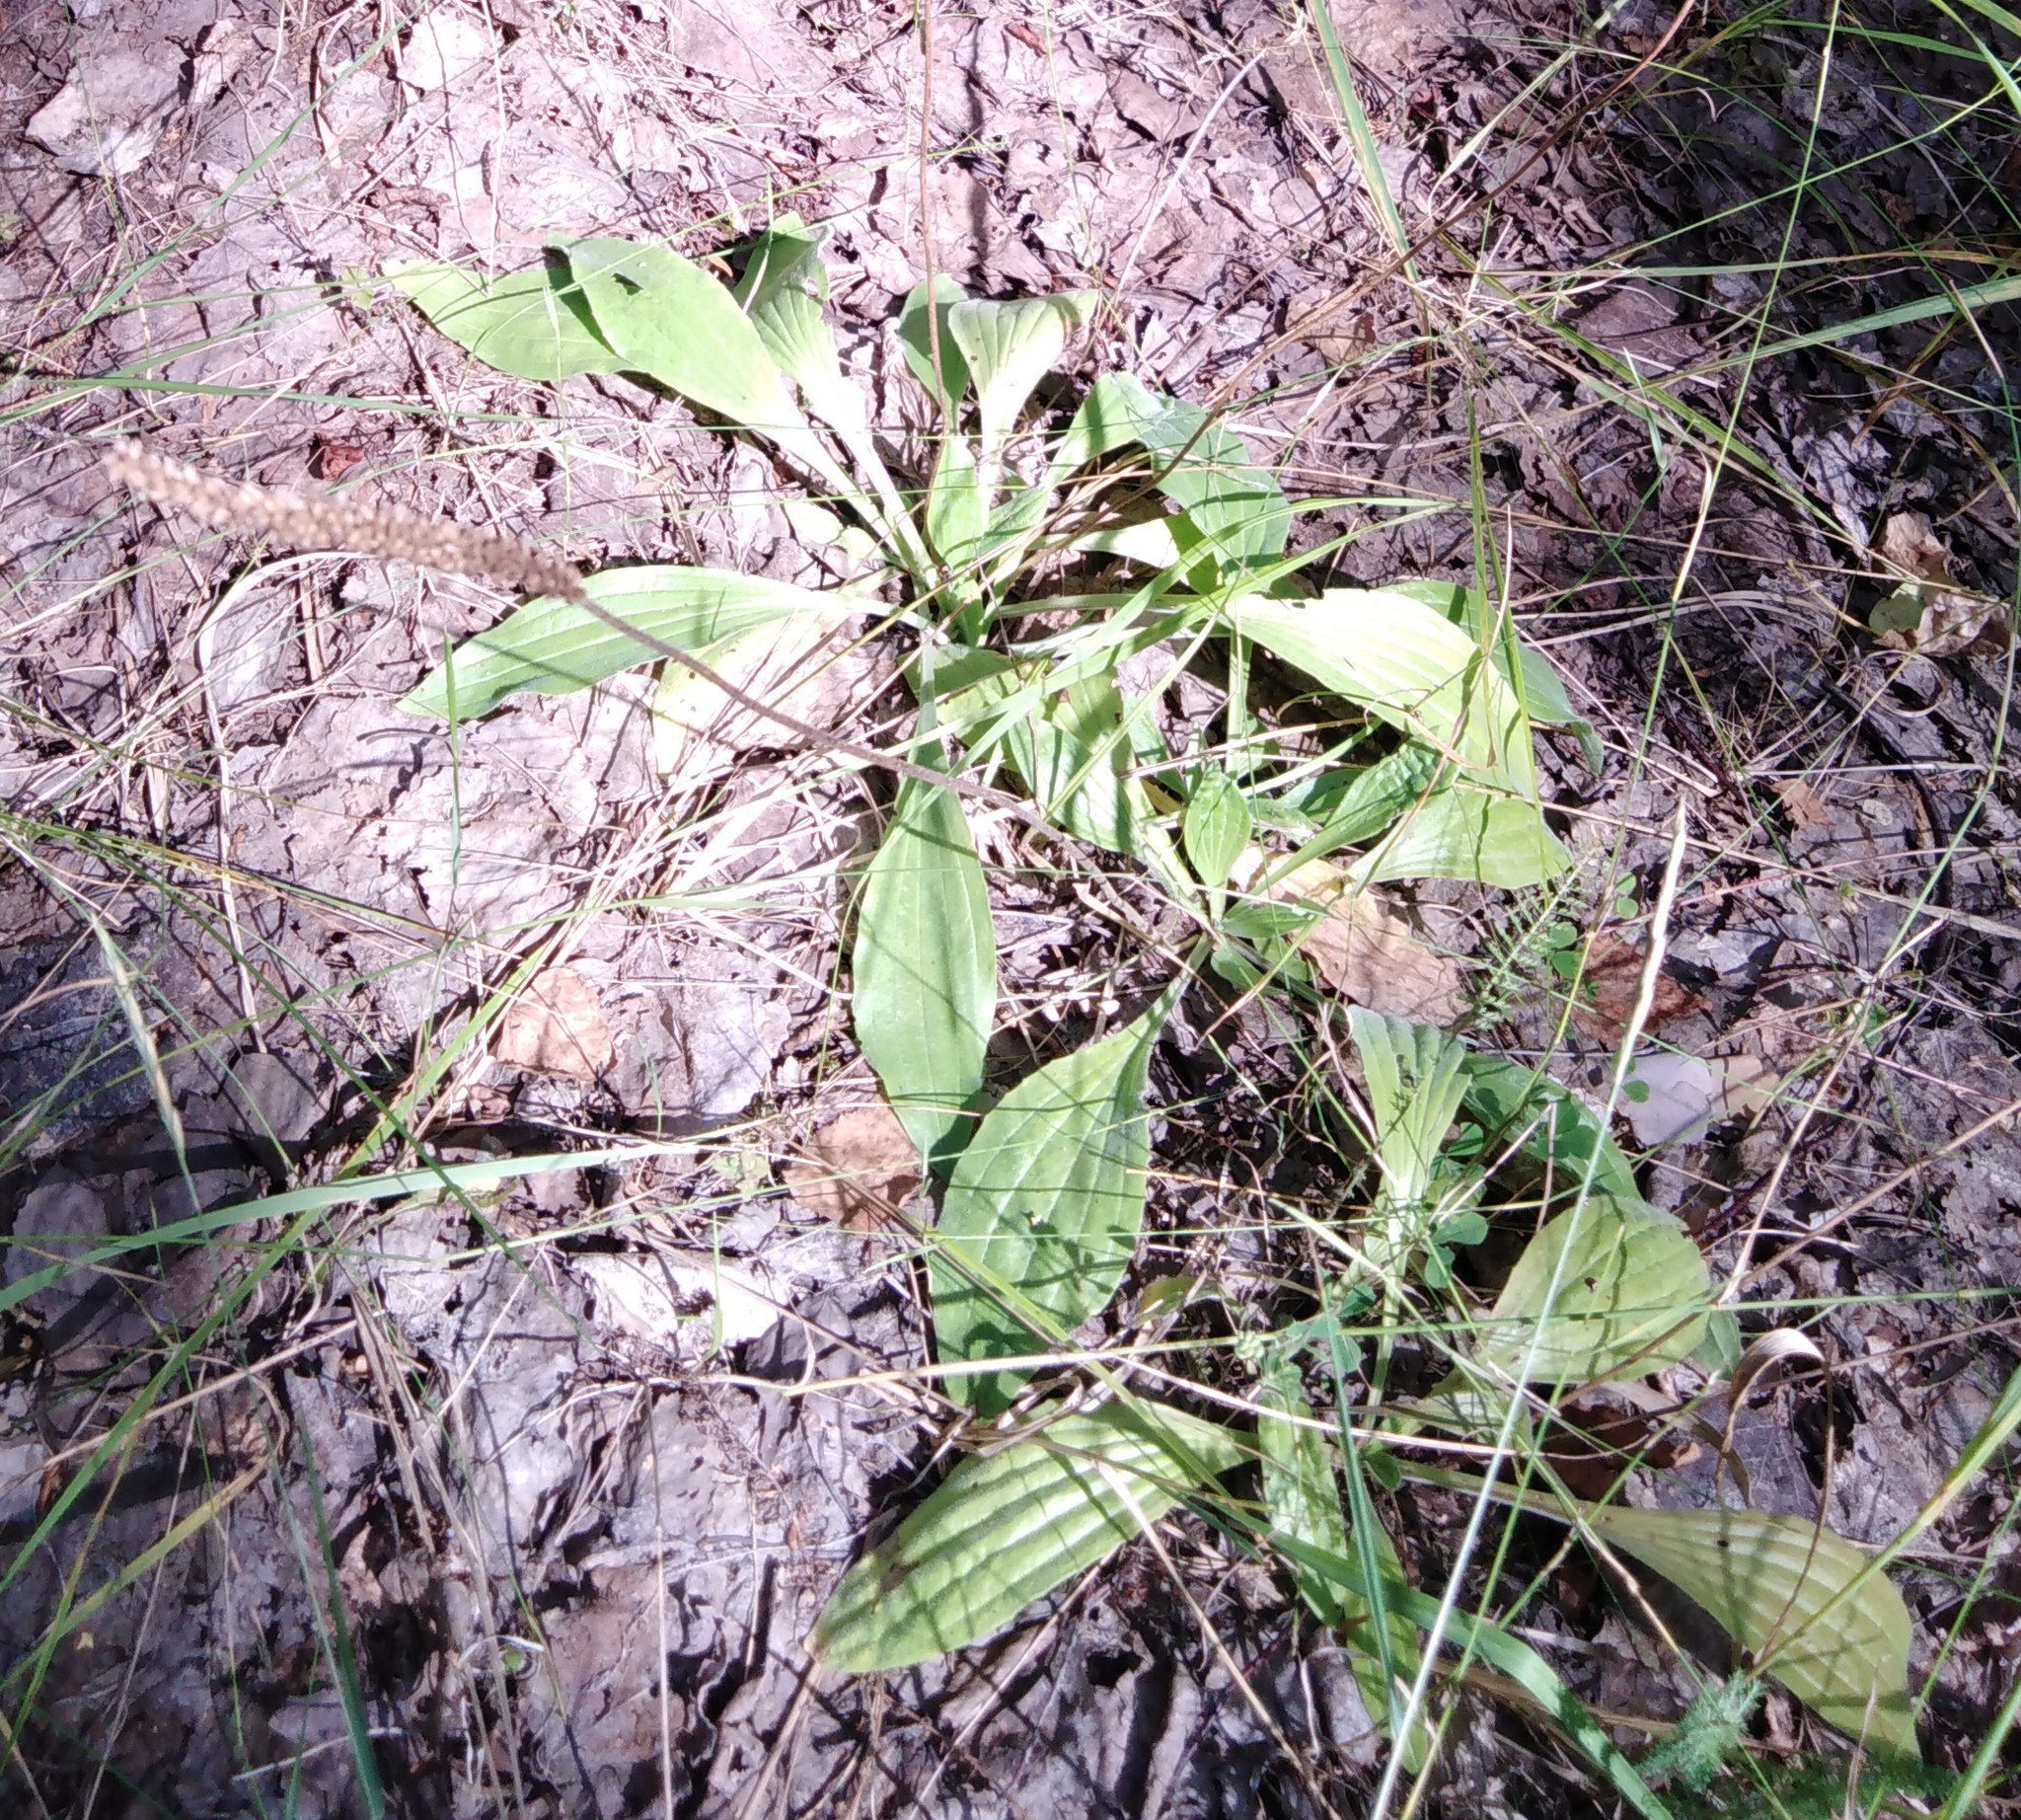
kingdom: Plantae
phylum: Tracheophyta
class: Magnoliopsida
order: Lamiales
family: Plantaginaceae
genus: Plantago
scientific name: Plantago media
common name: Hoary plantain
